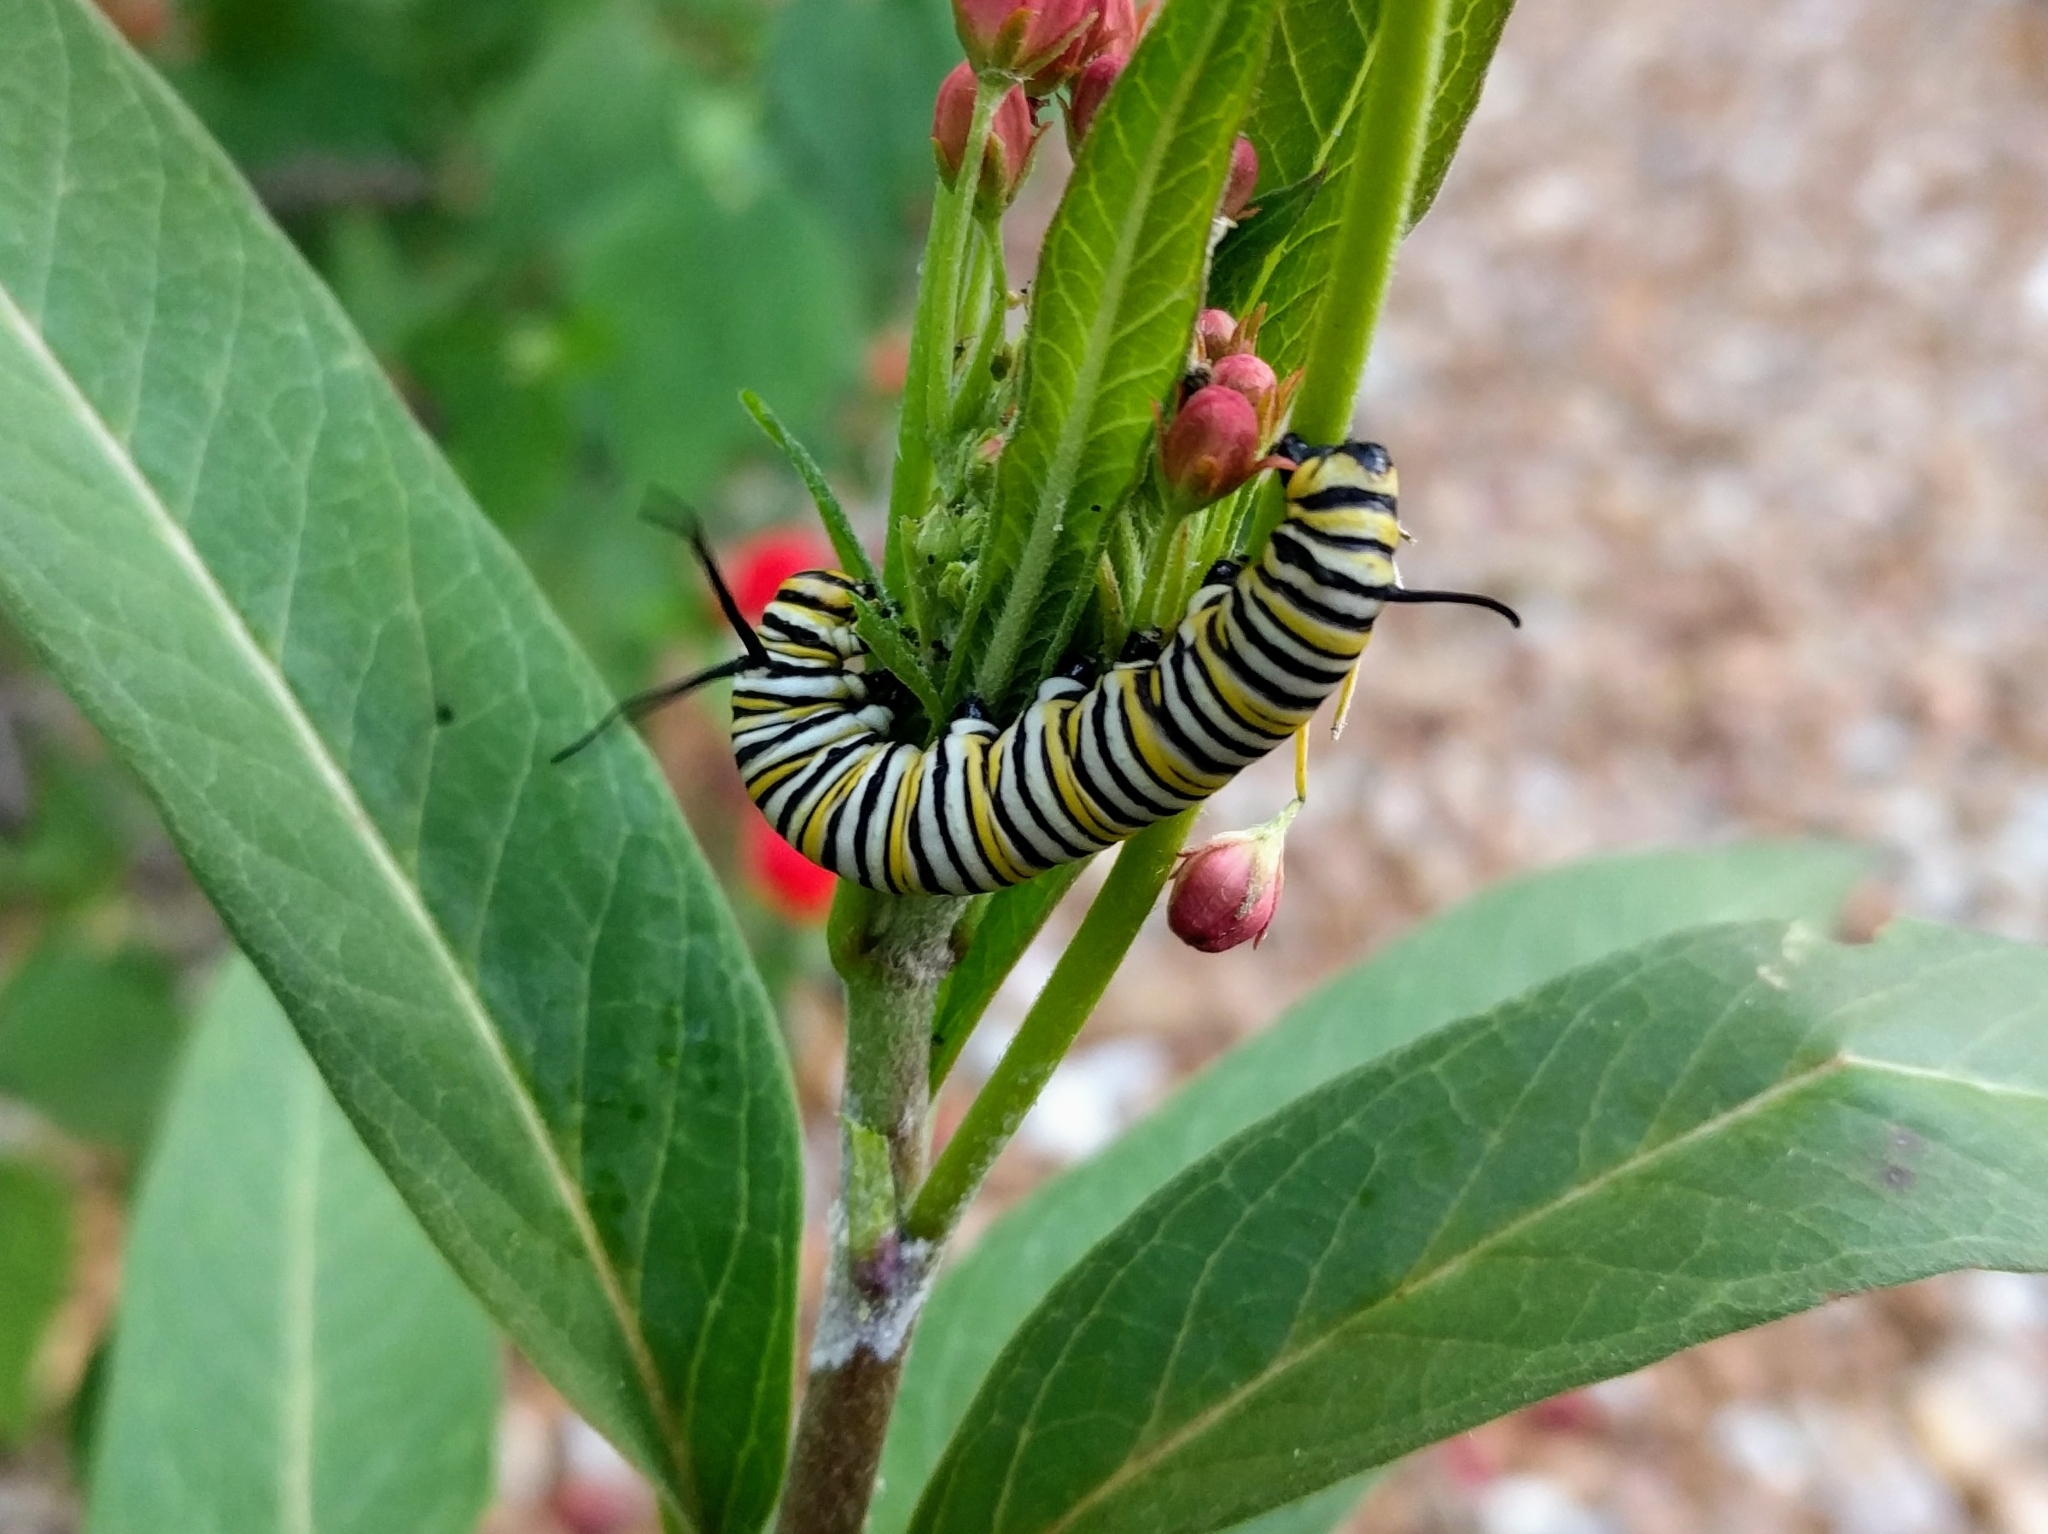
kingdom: Animalia
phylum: Arthropoda
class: Insecta
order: Lepidoptera
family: Nymphalidae
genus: Danaus
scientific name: Danaus plexippus
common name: Monarch
